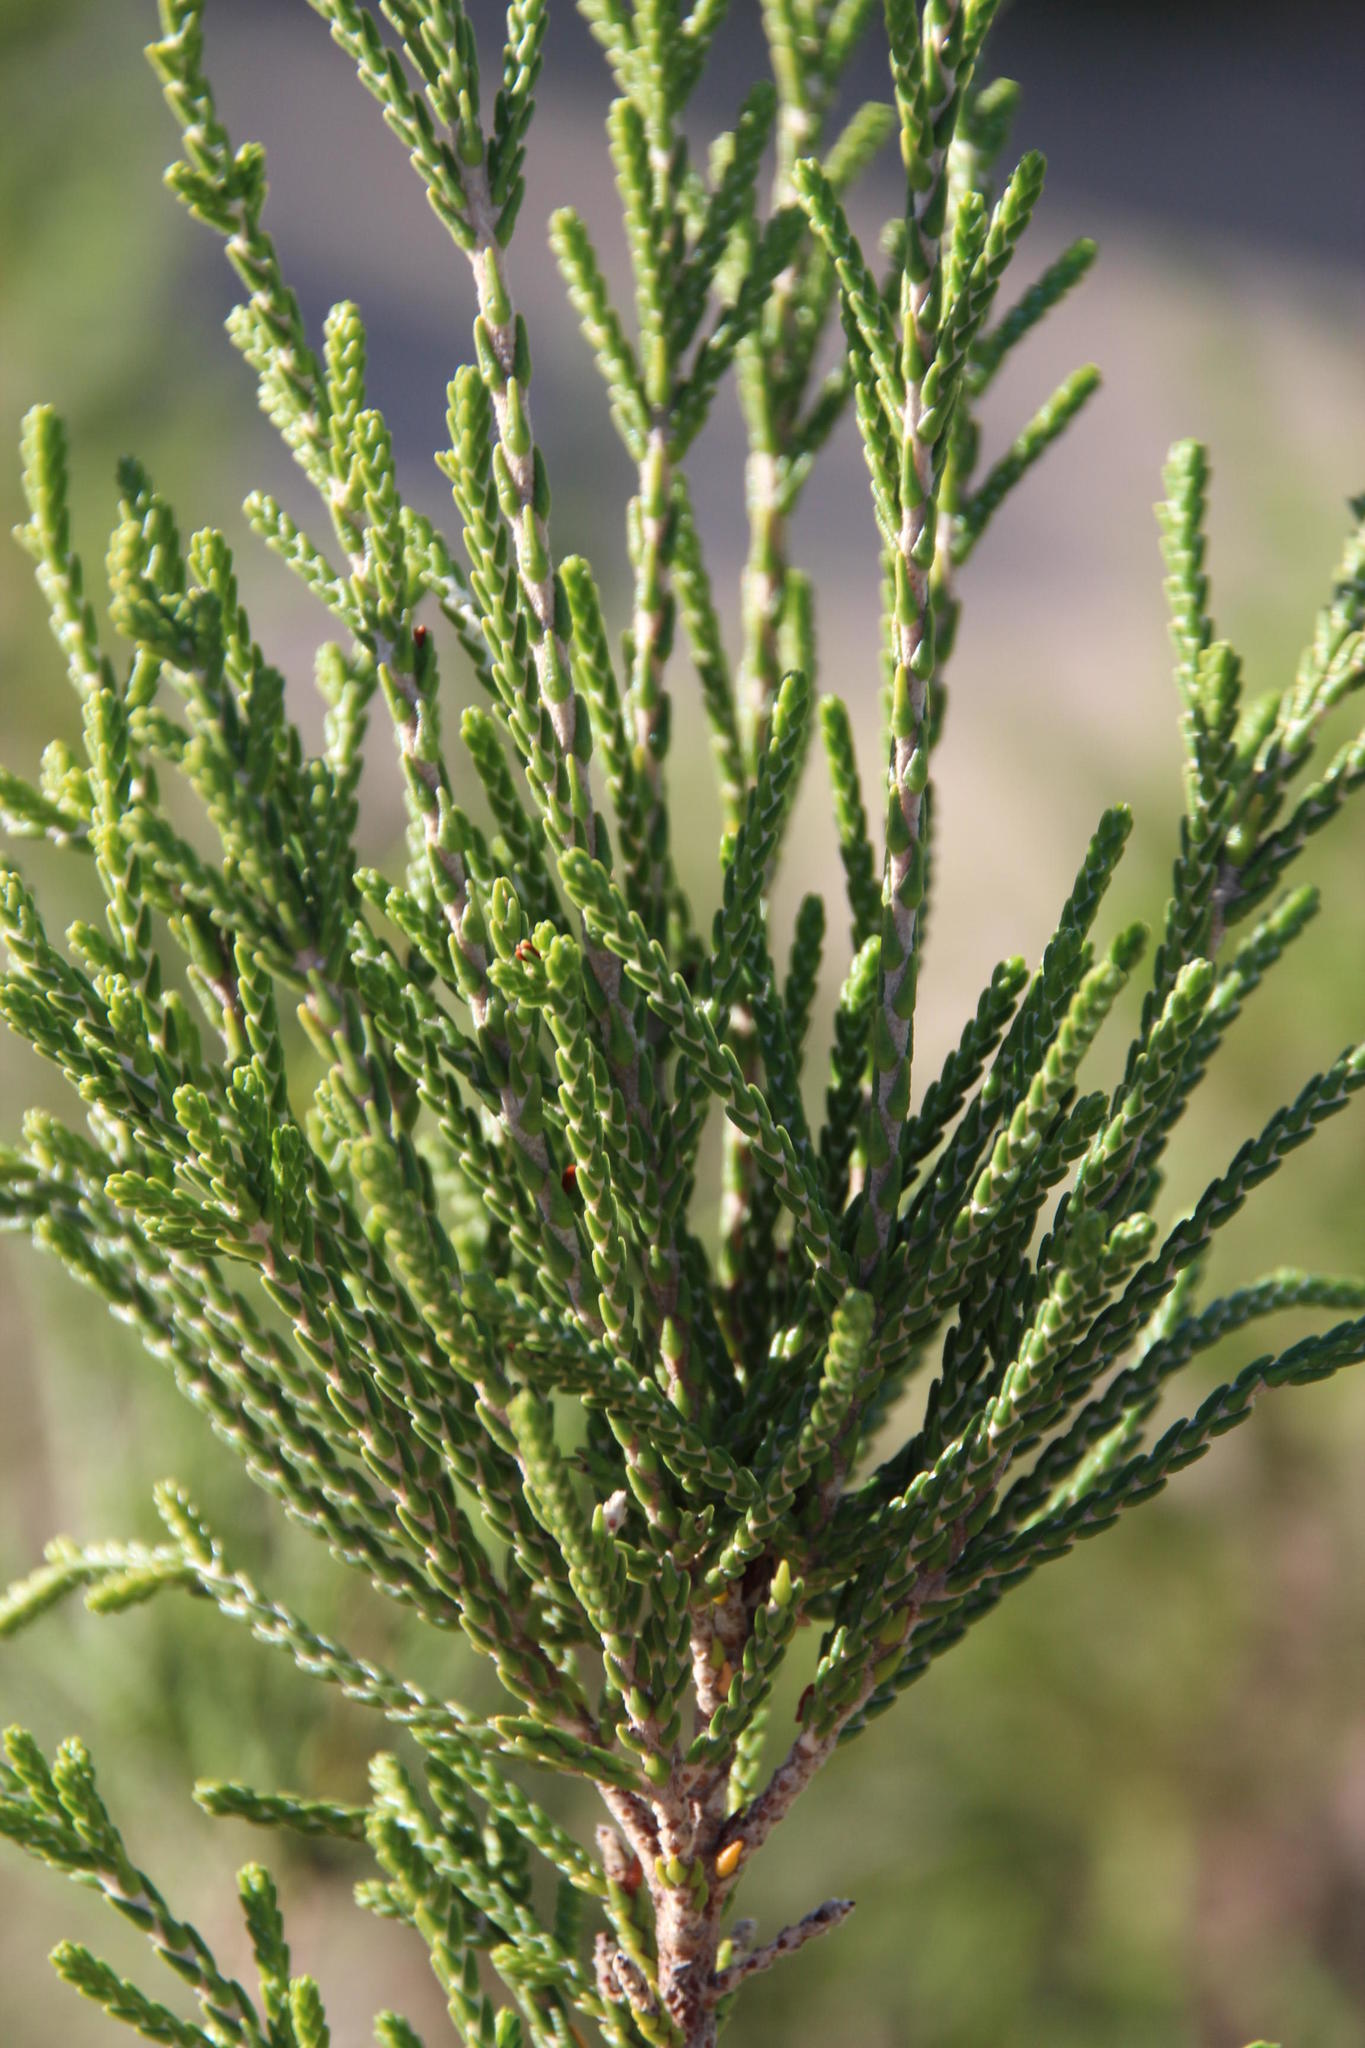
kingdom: Plantae
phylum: Tracheophyta
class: Magnoliopsida
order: Malvales
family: Thymelaeaceae
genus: Passerina
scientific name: Passerina rigida
